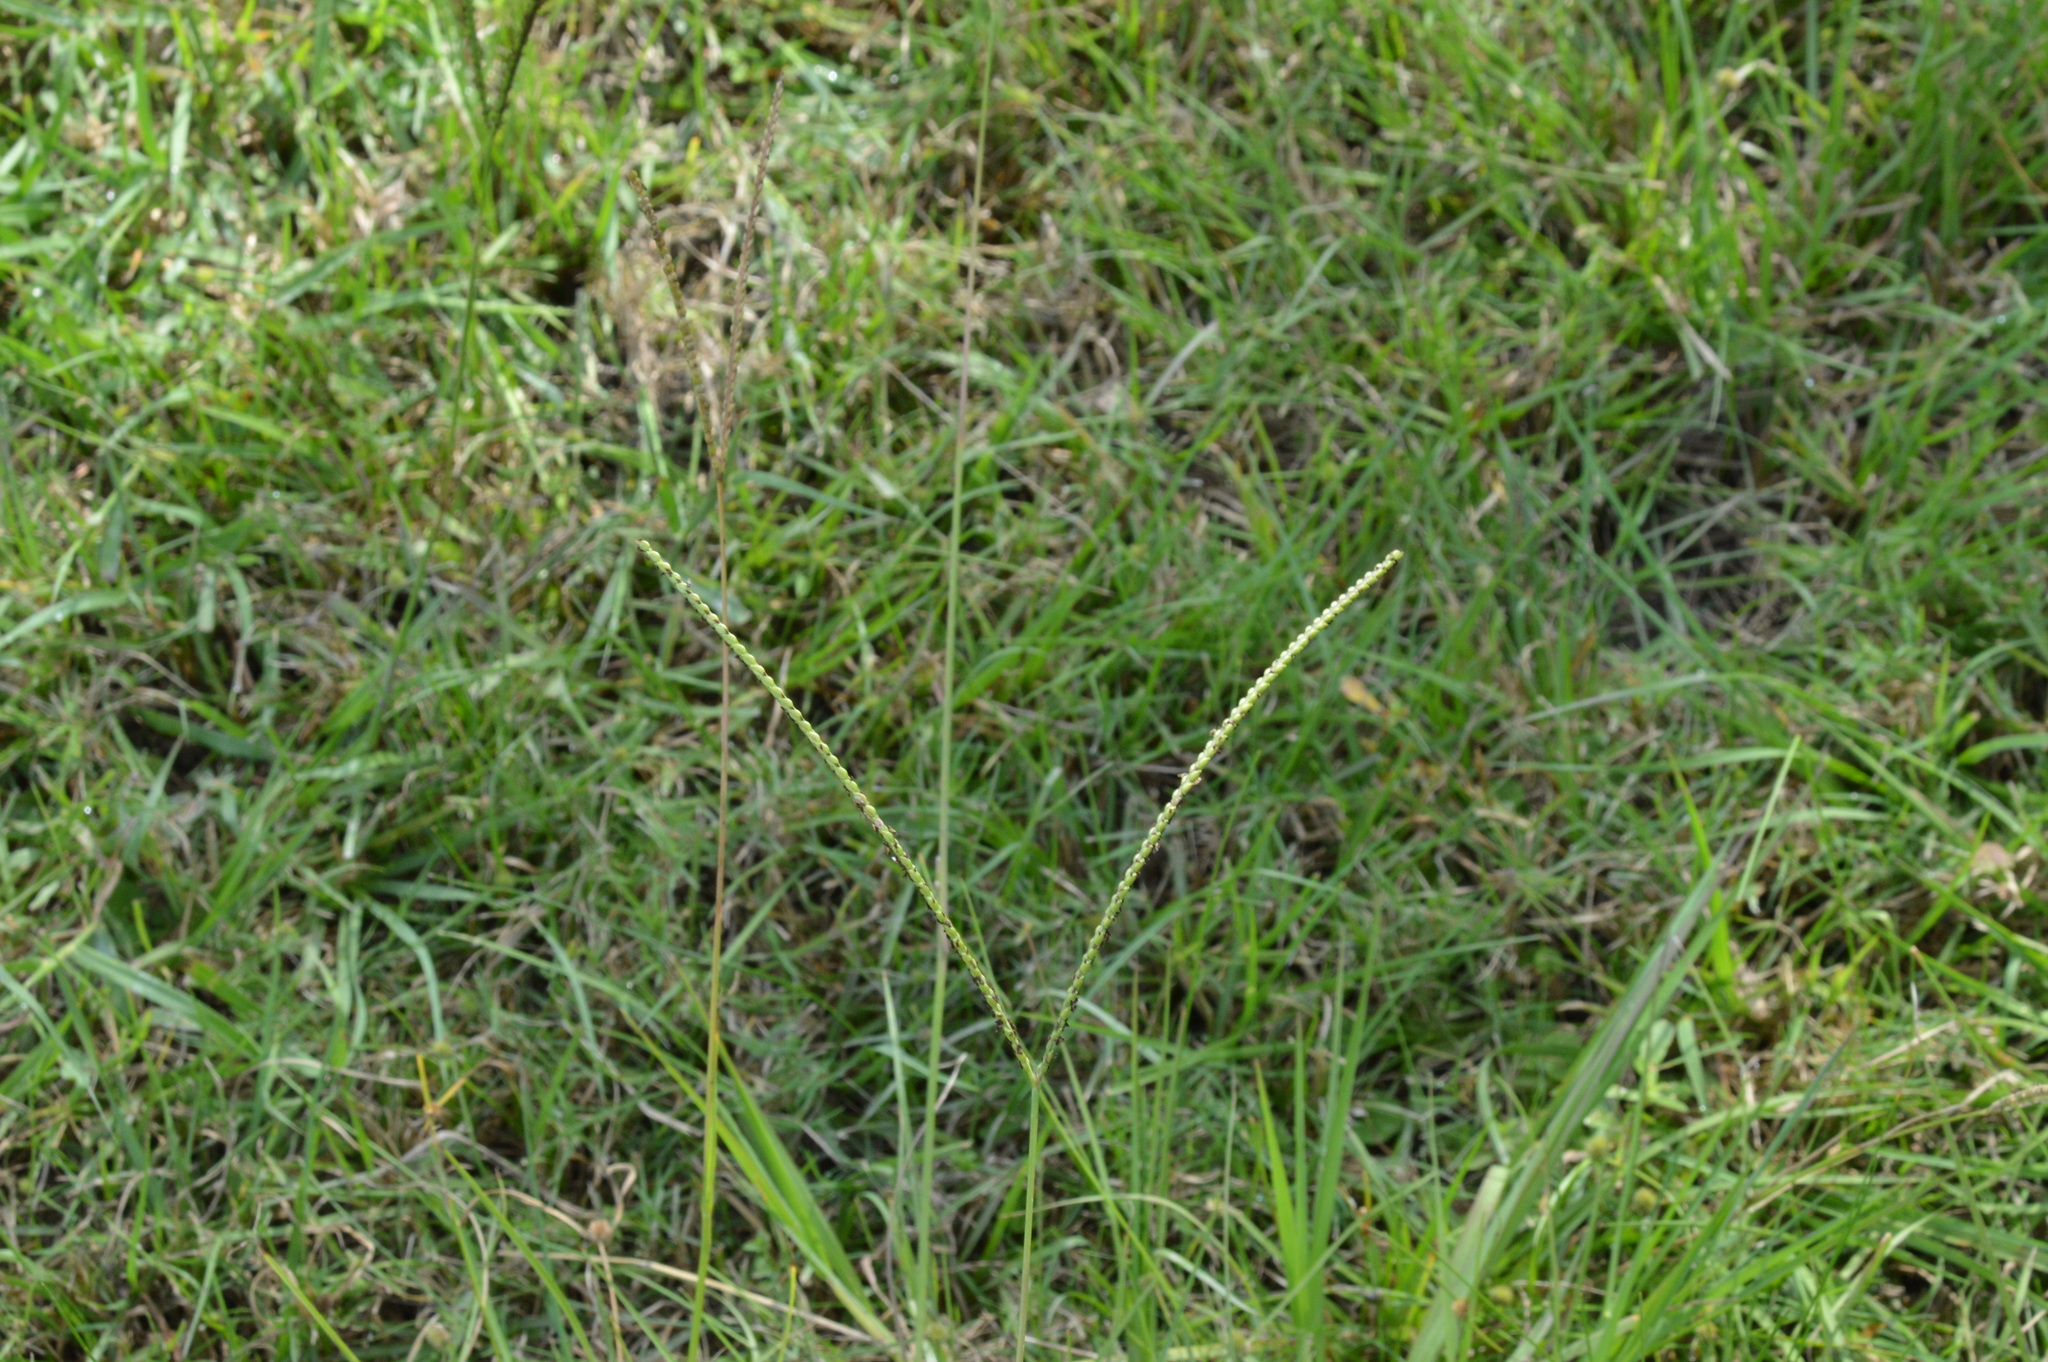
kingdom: Plantae
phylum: Tracheophyta
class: Liliopsida
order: Poales
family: Poaceae
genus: Paspalum
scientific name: Paspalum notatum
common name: Bahiagrass
